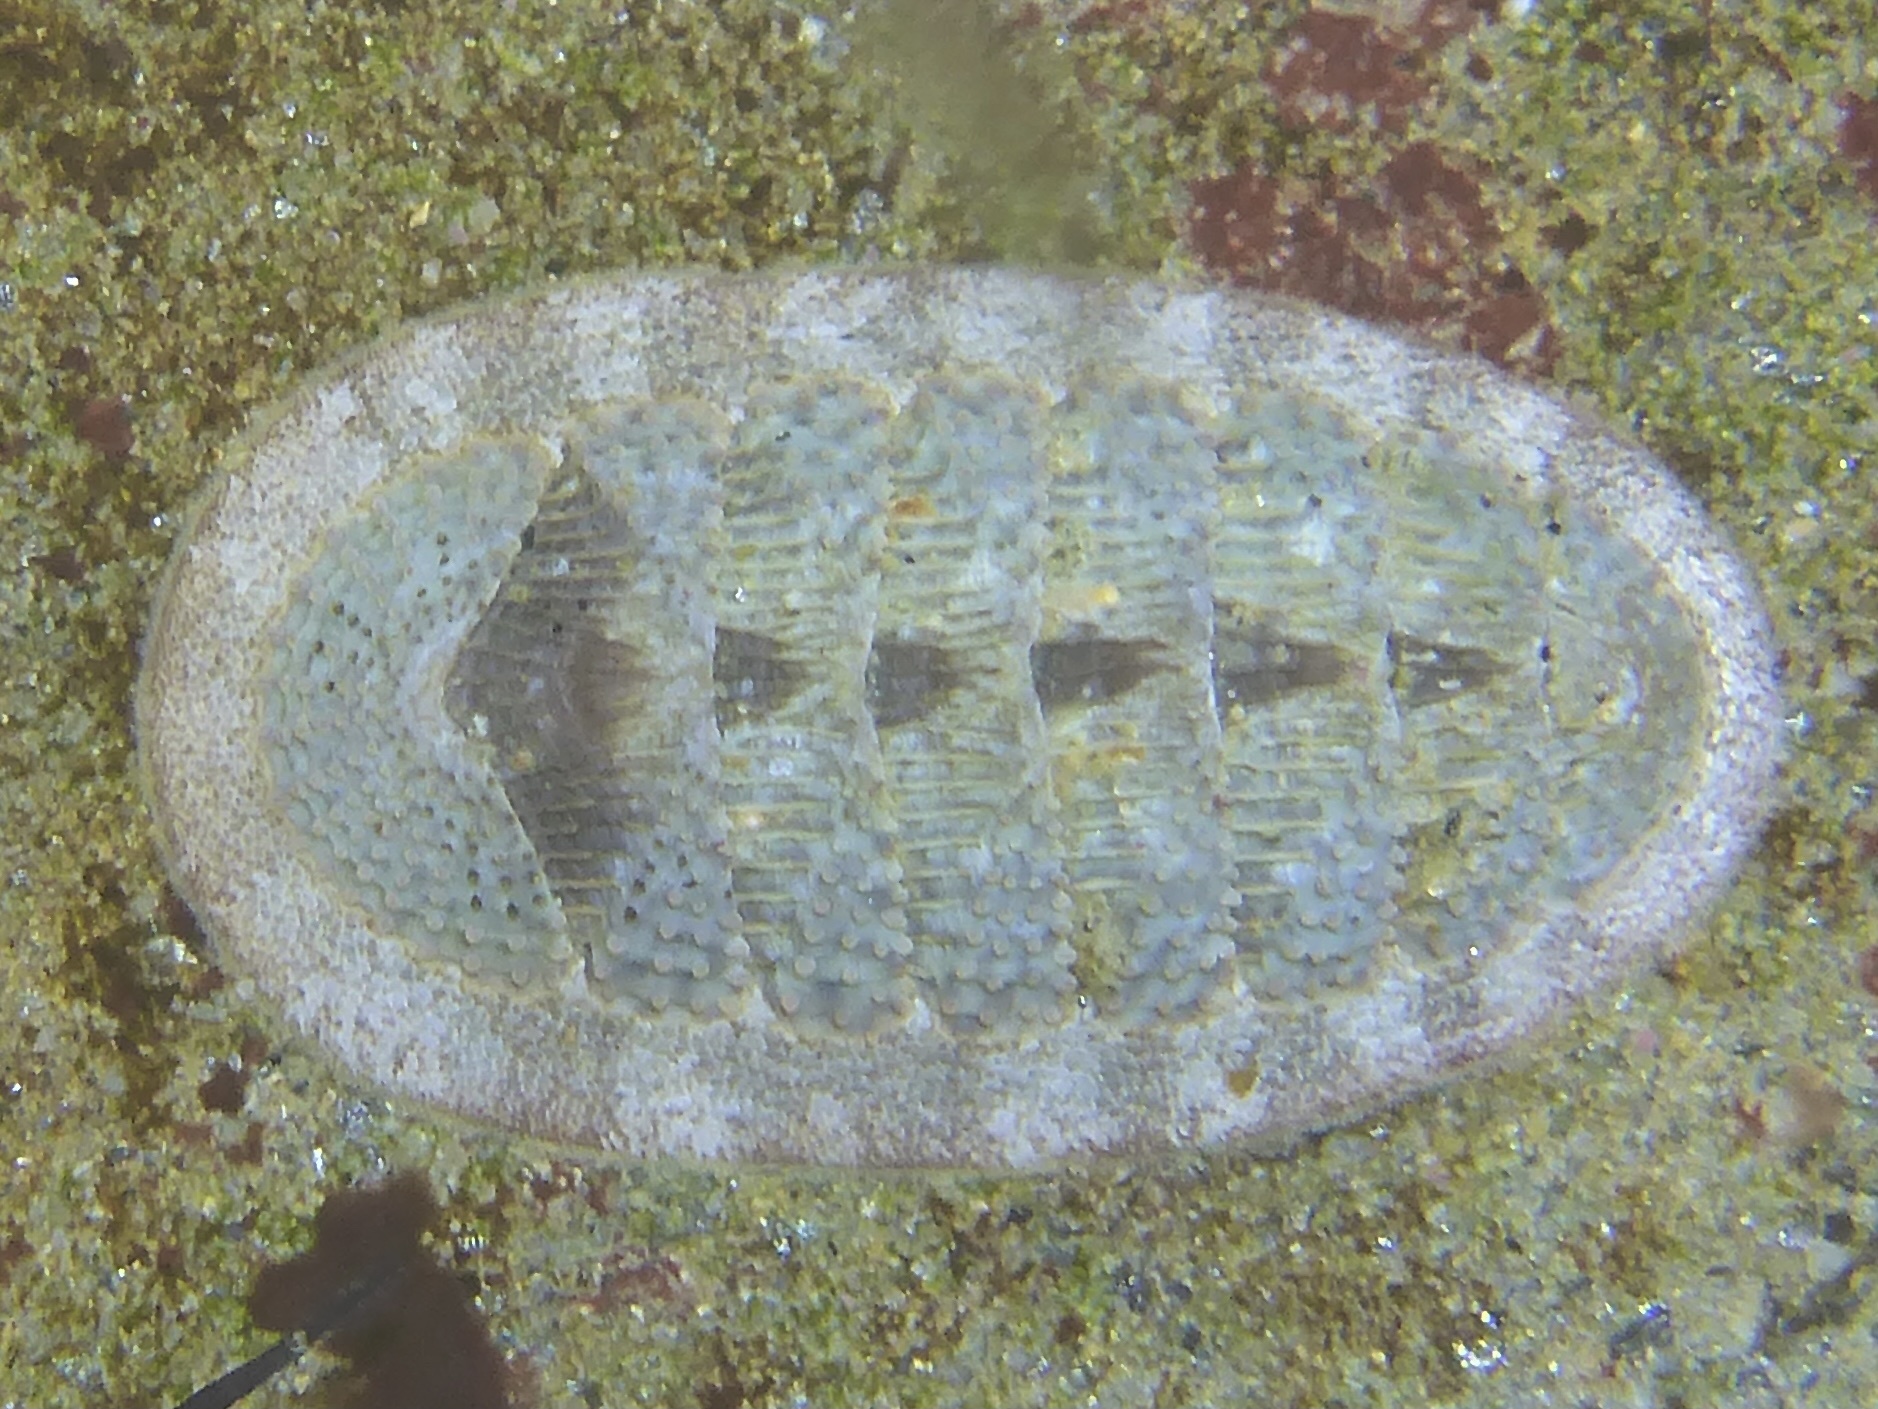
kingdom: Animalia
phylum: Mollusca
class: Polyplacophora
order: Chitonida
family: Ischnochitonidae
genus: Lepidozona
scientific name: Lepidozona cooperi
